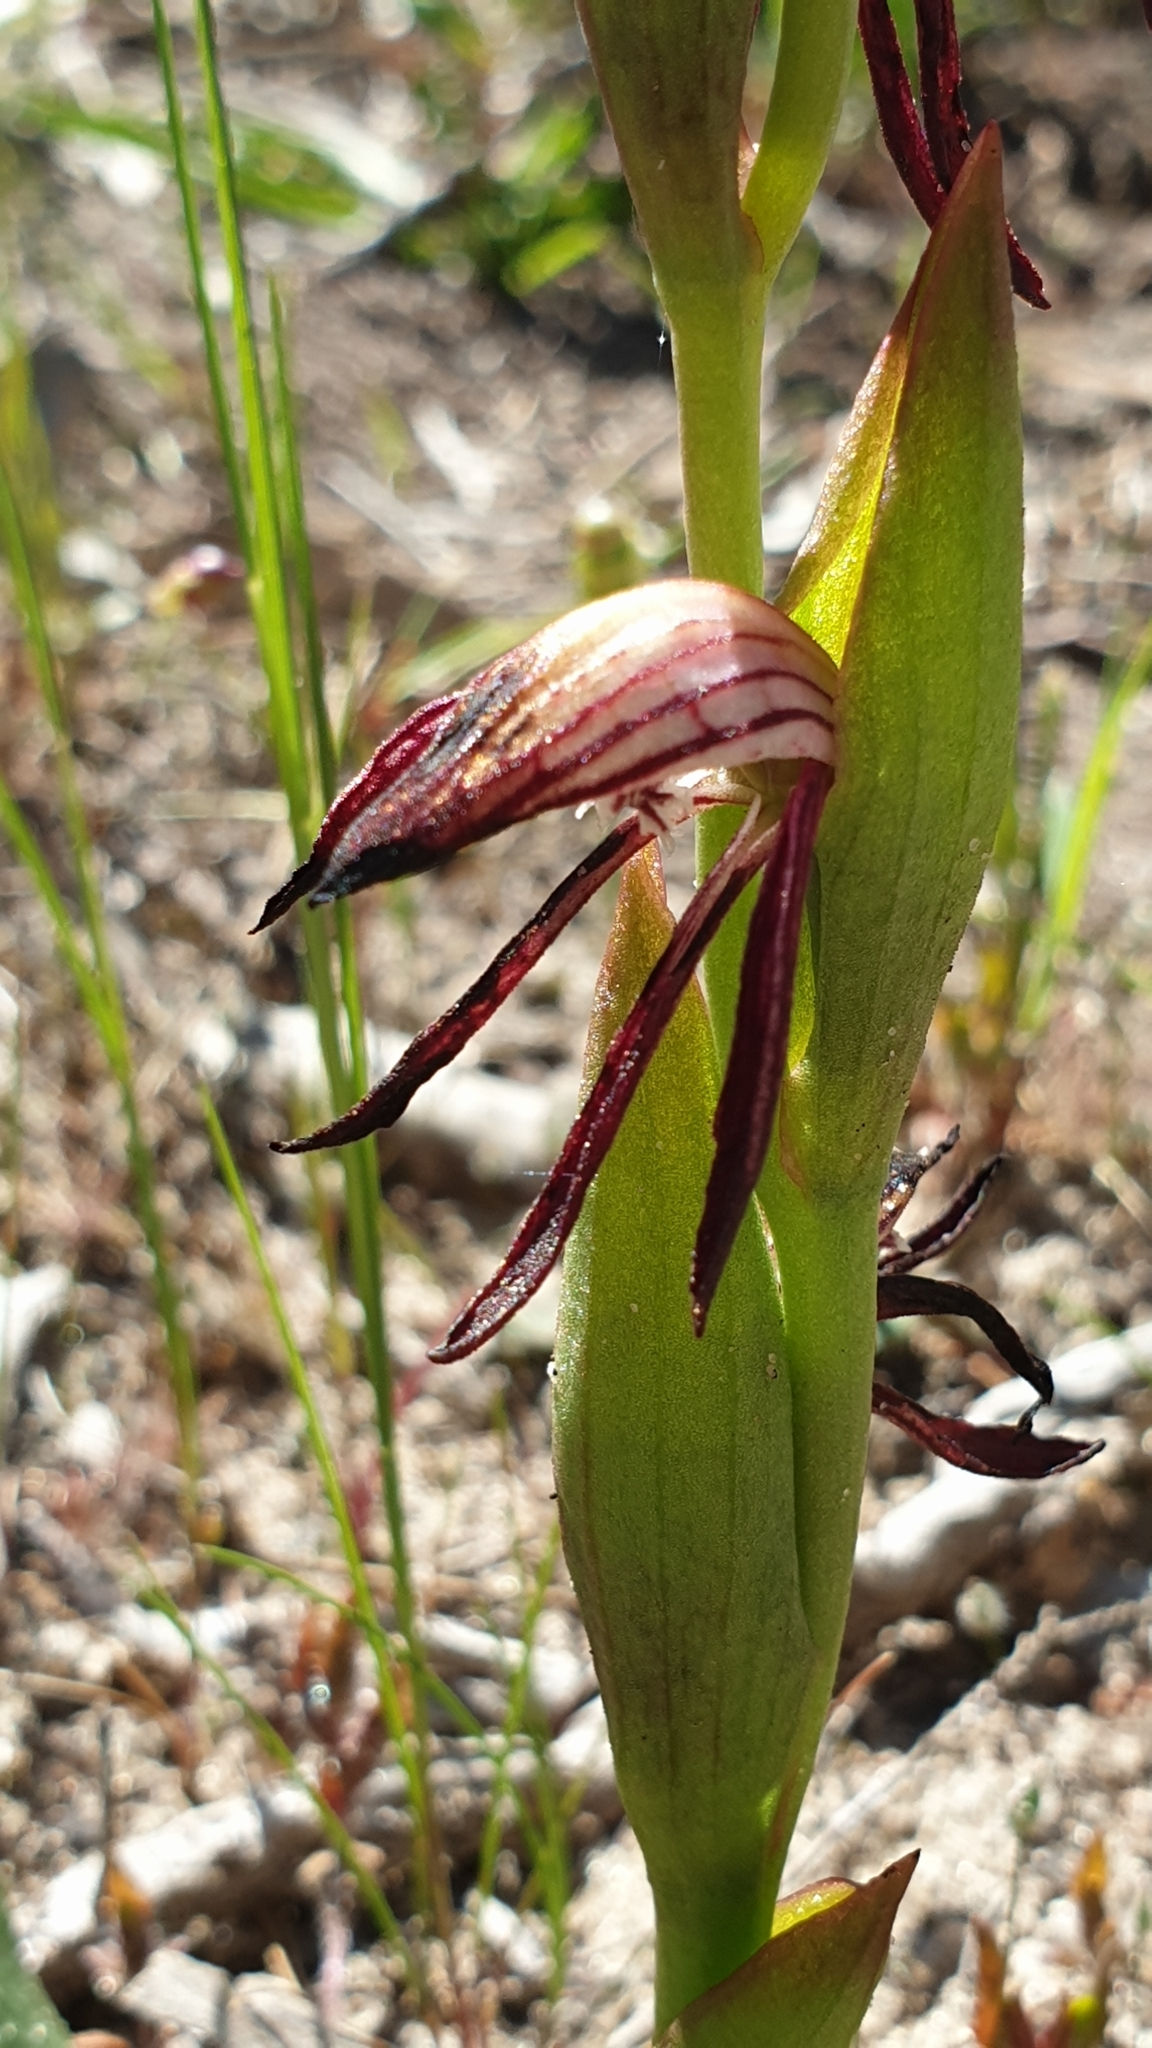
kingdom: Plantae
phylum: Tracheophyta
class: Liliopsida
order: Asparagales
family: Orchidaceae
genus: Pyrorchis
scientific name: Pyrorchis nigricans
